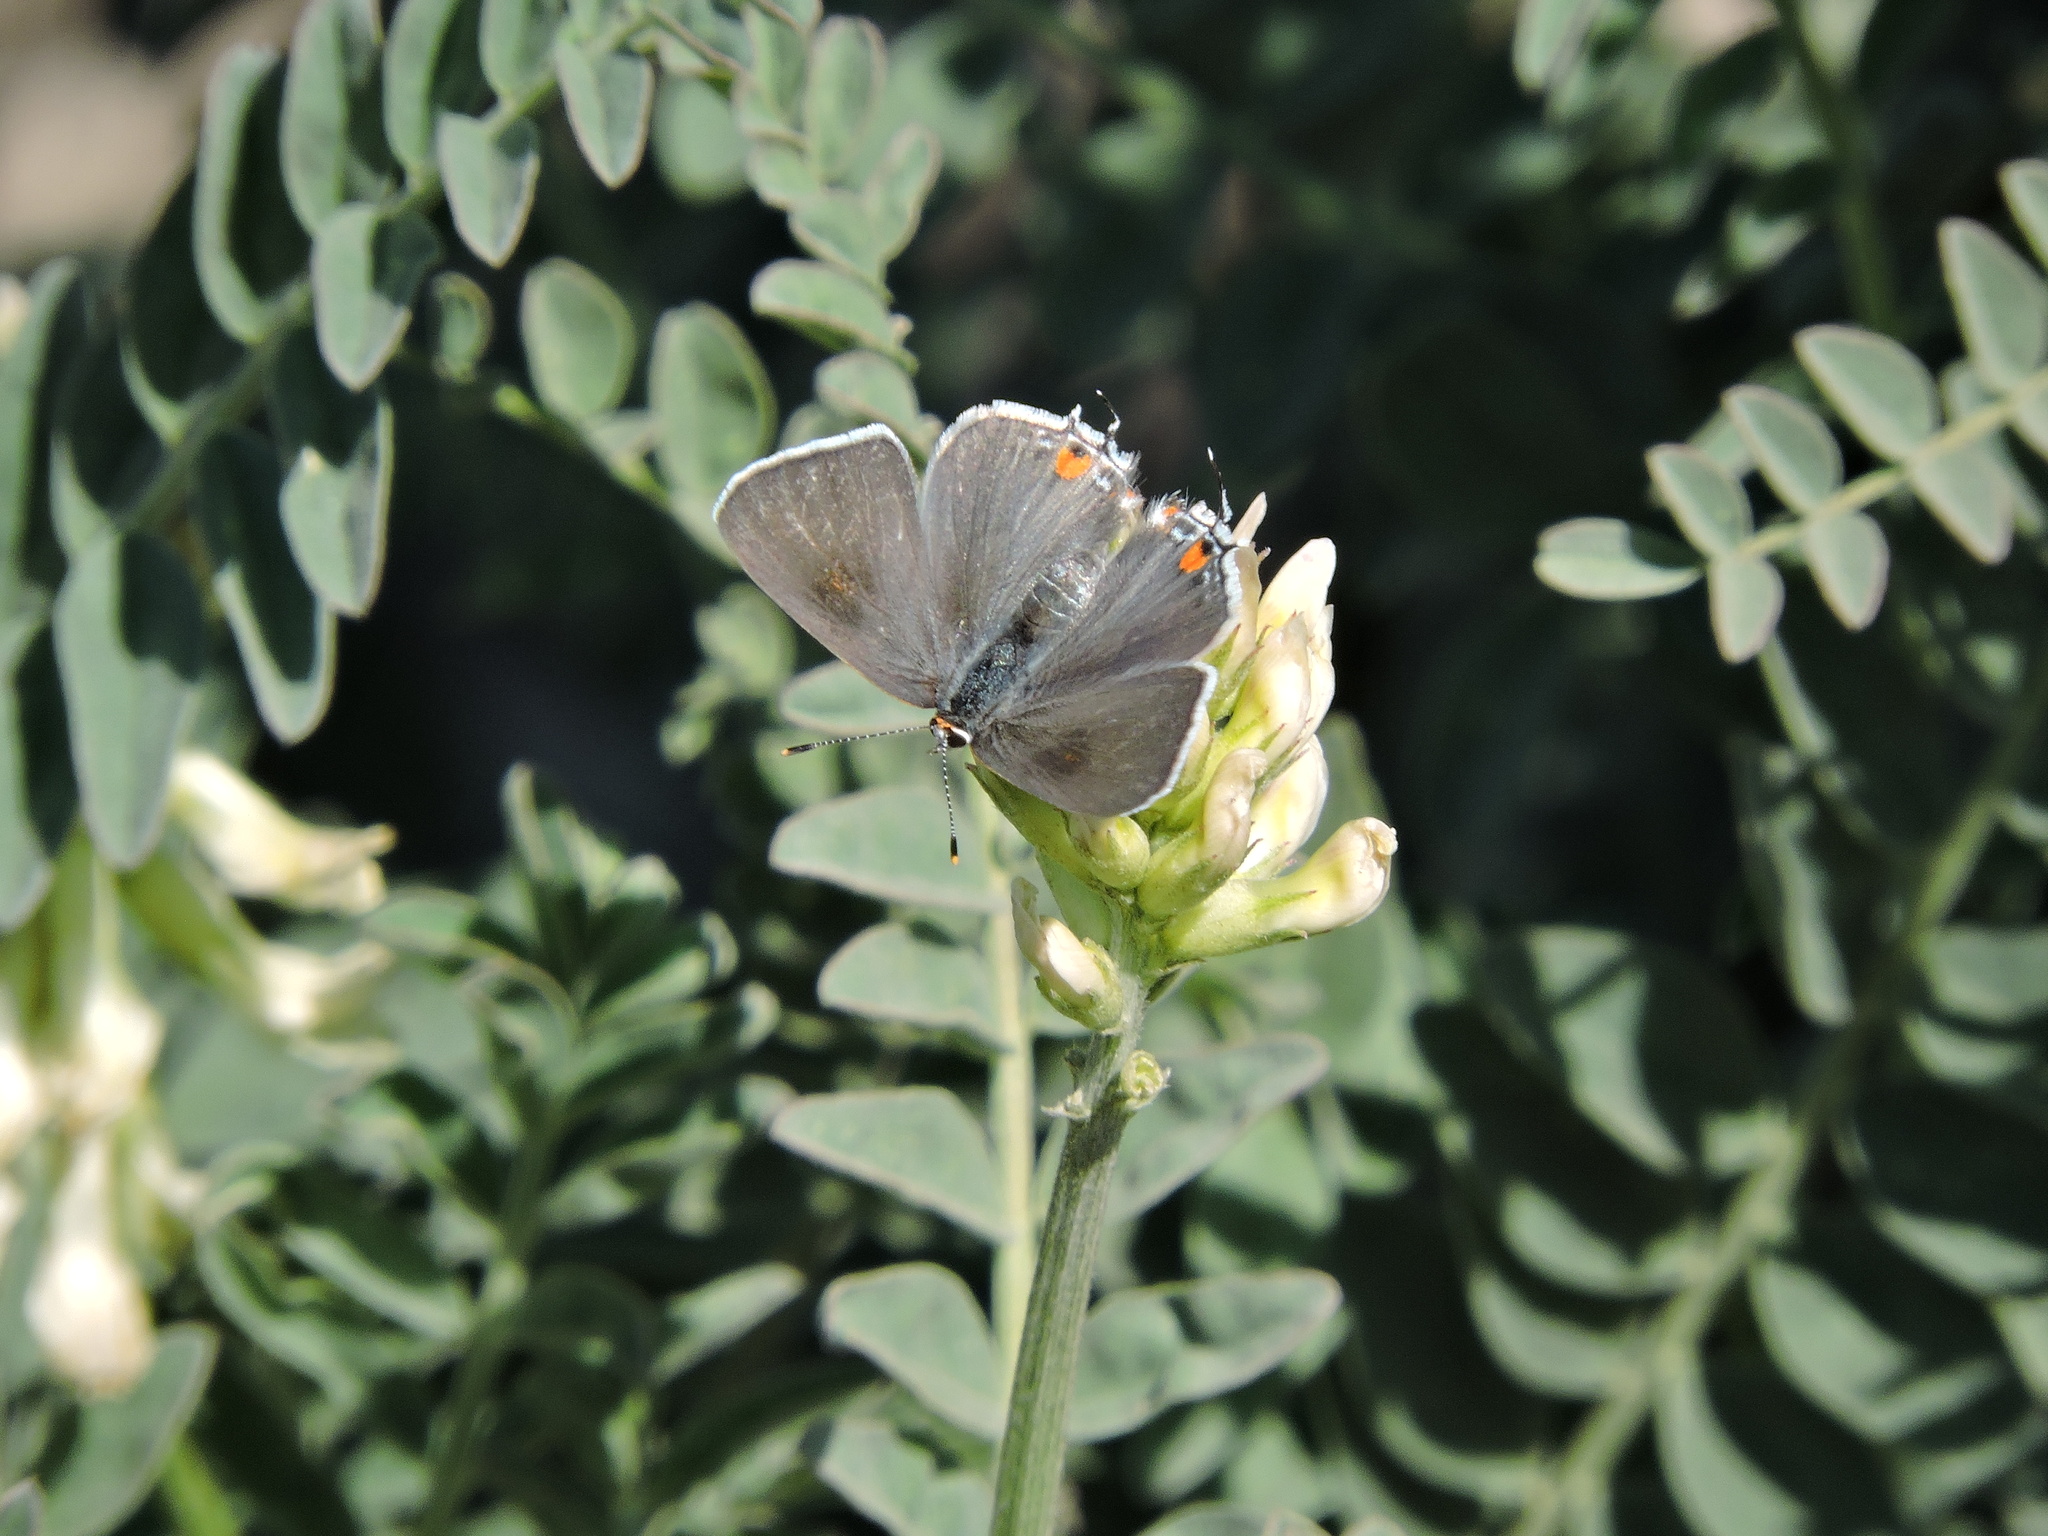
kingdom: Animalia
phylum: Arthropoda
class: Insecta
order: Lepidoptera
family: Lycaenidae
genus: Strymon
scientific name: Strymon melinus
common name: Gray hairstreak
